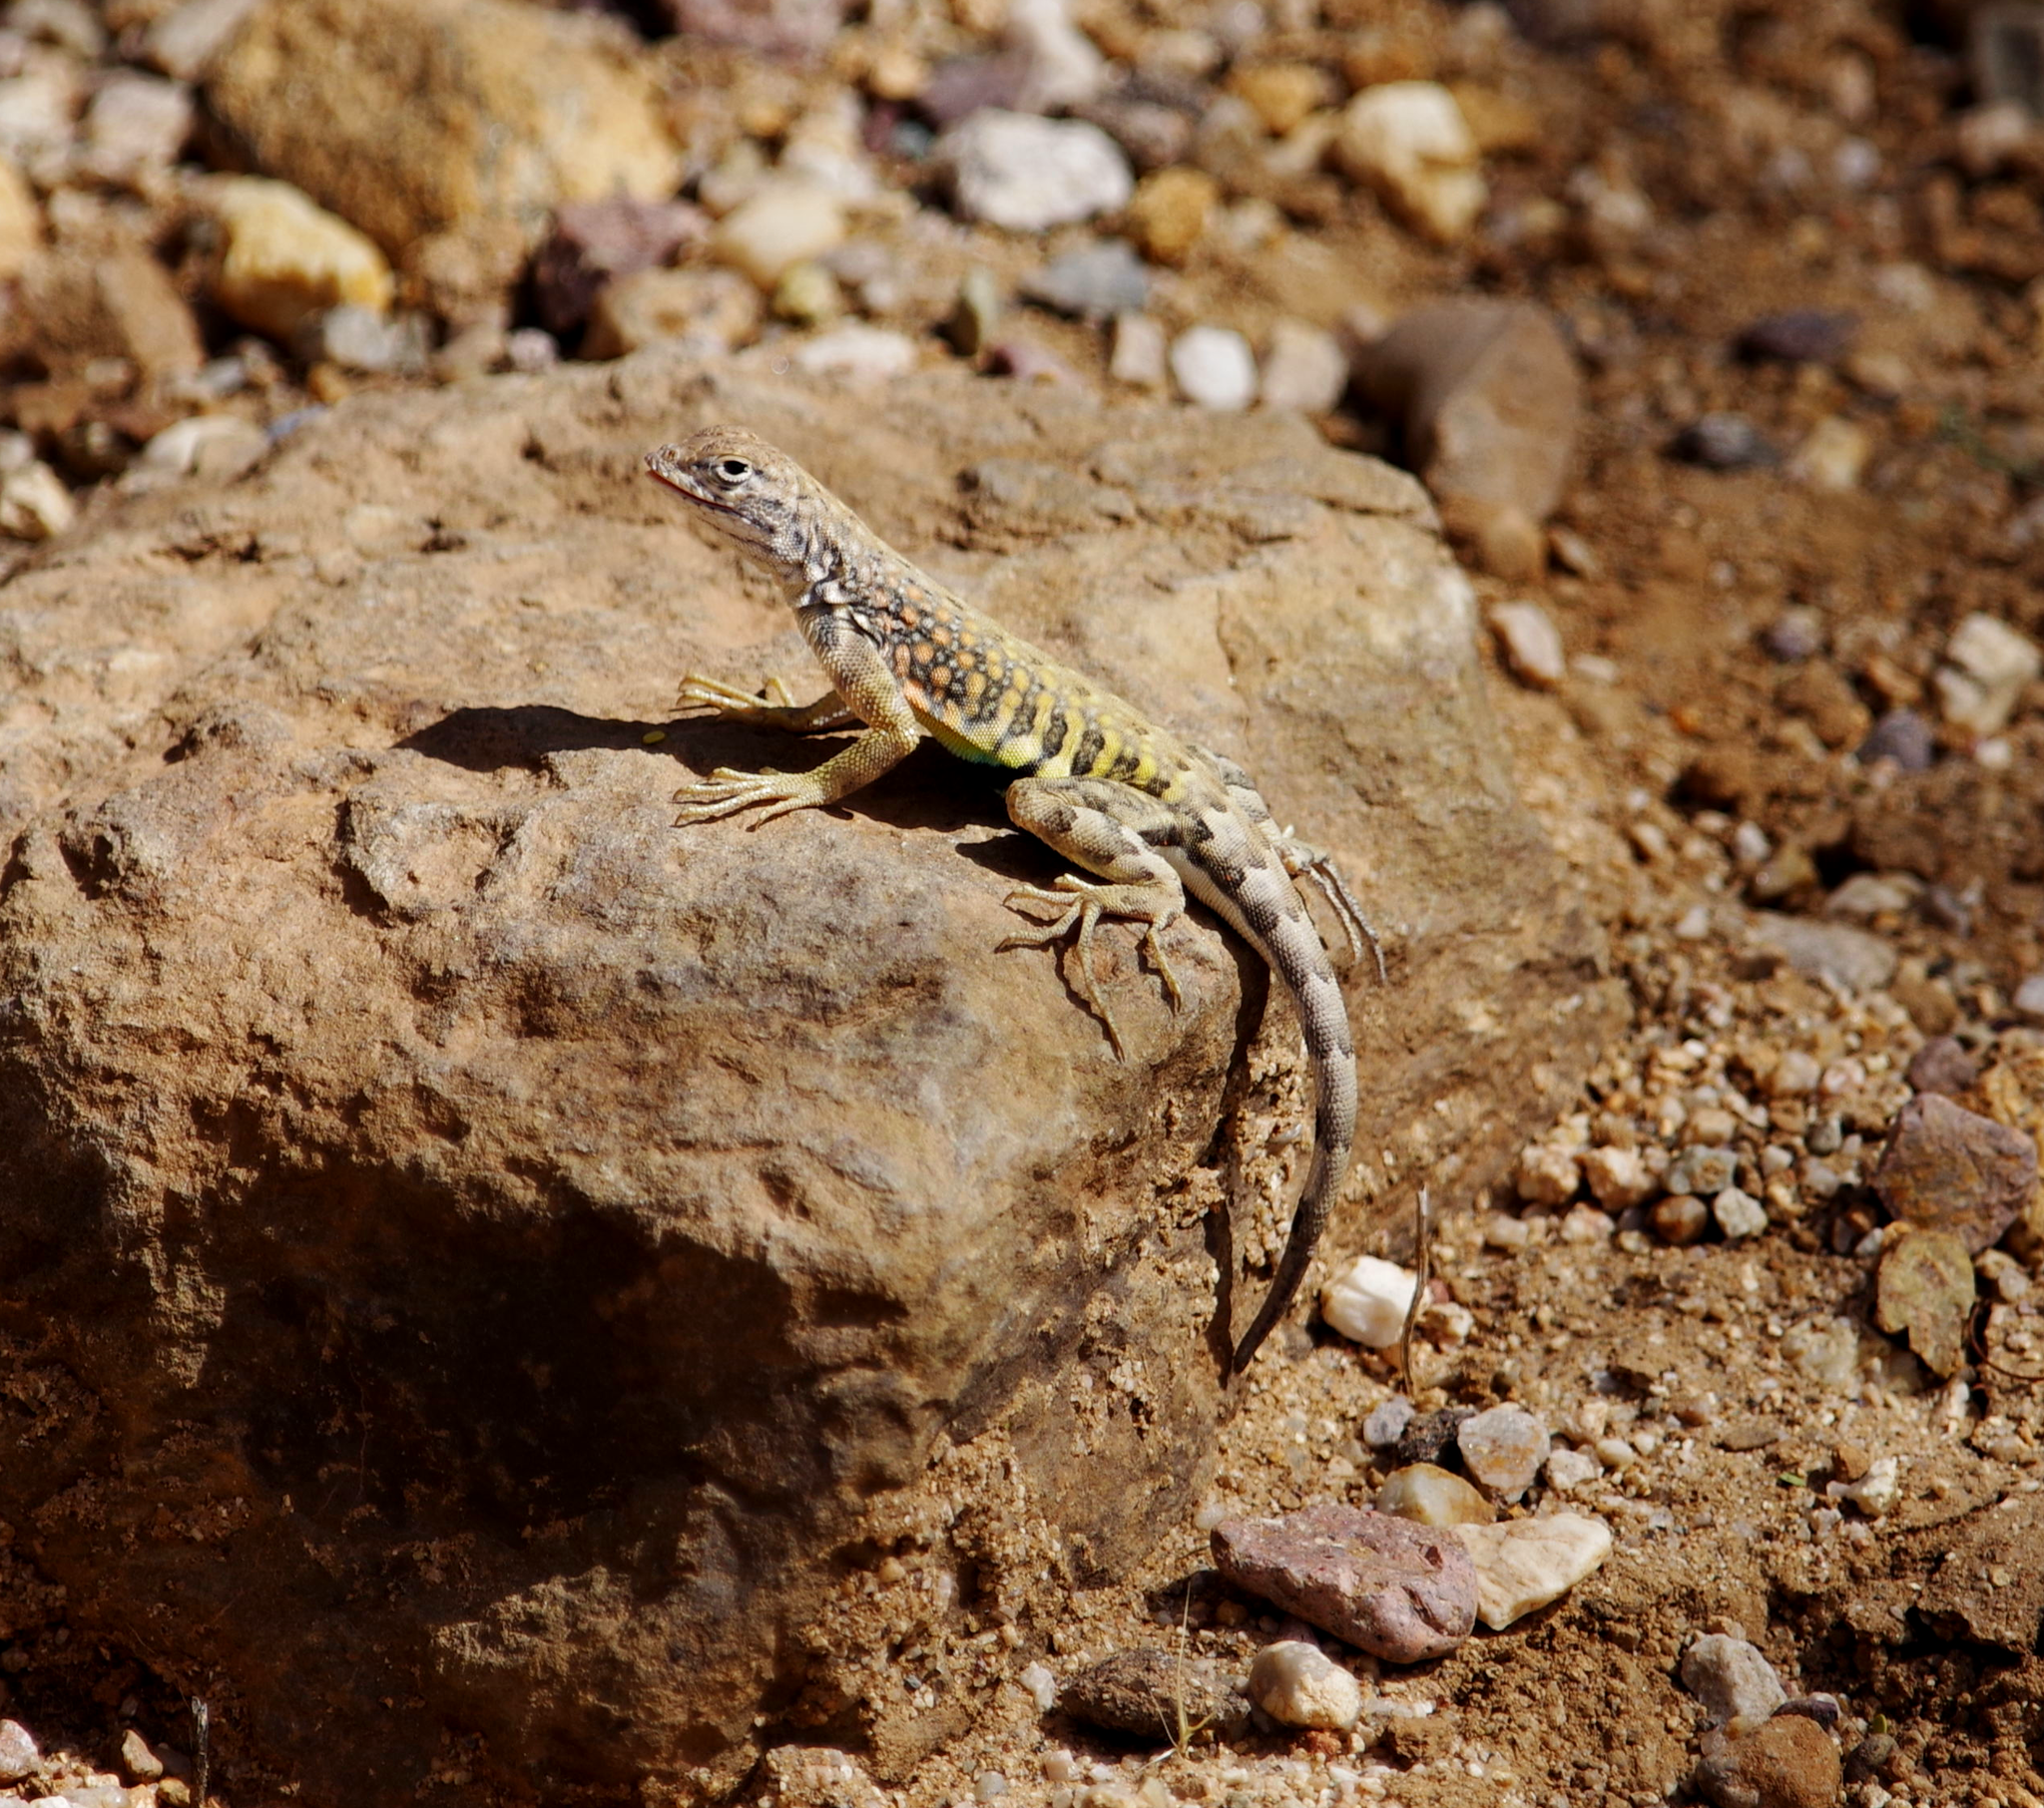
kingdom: Animalia
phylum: Chordata
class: Squamata
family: Phrynosomatidae
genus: Cophosaurus
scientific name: Cophosaurus texanus
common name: Greater earless lizard
